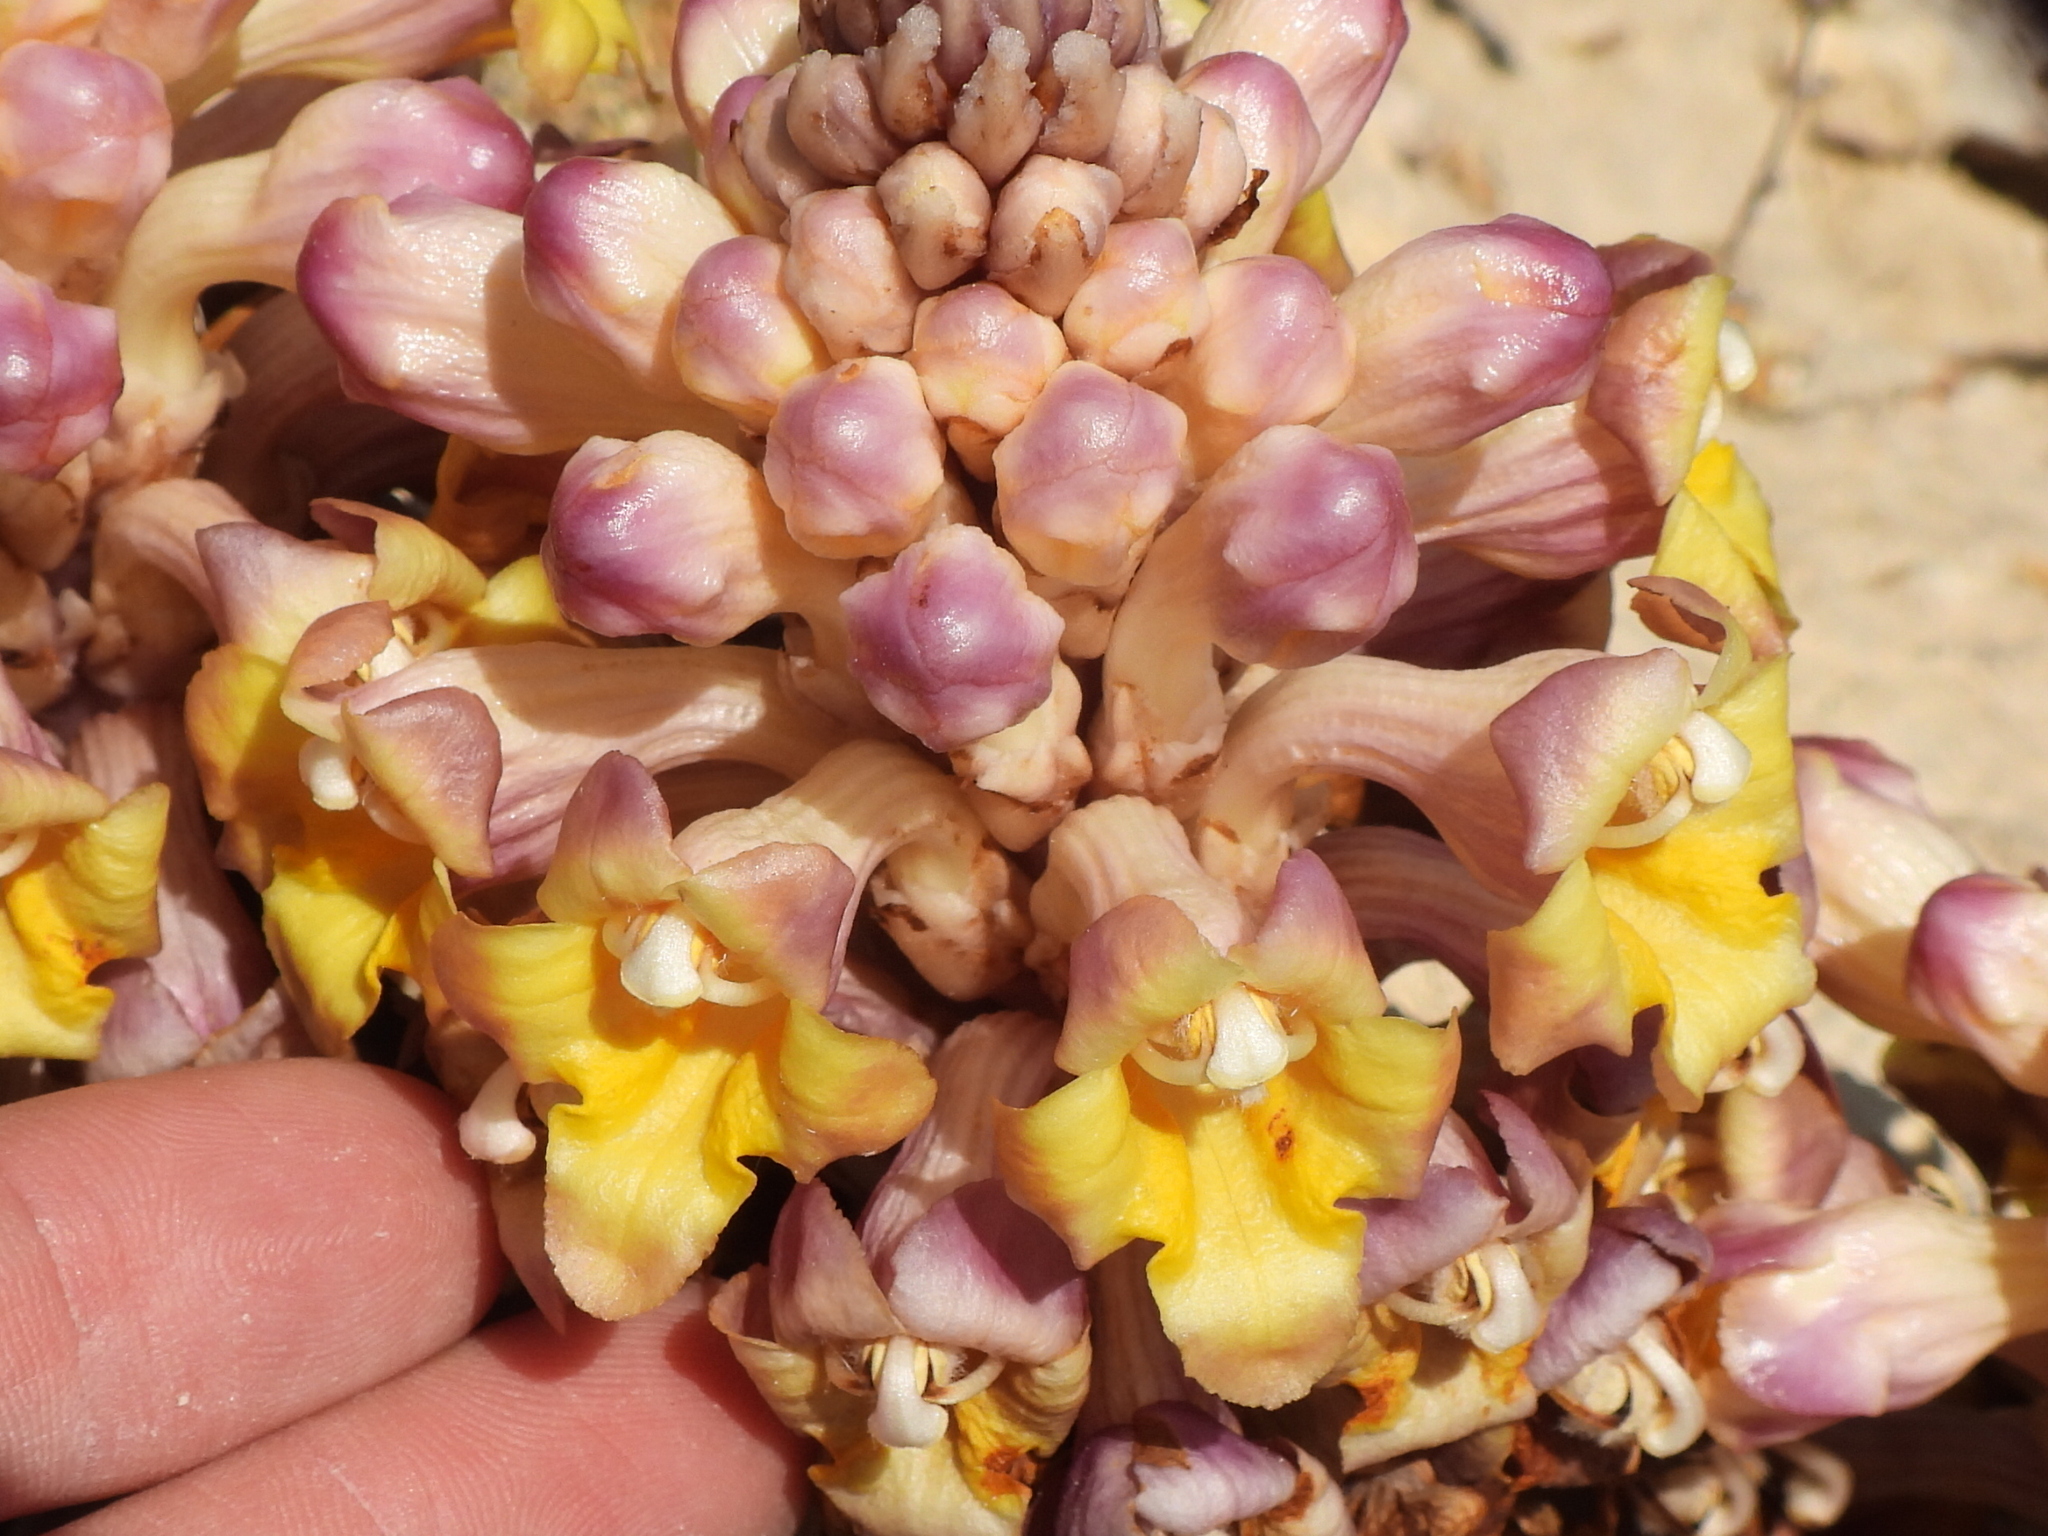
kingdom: Plantae
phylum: Tracheophyta
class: Magnoliopsida
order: Lamiales
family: Orobanchaceae
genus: Cistanche
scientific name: Cistanche tubulosa
